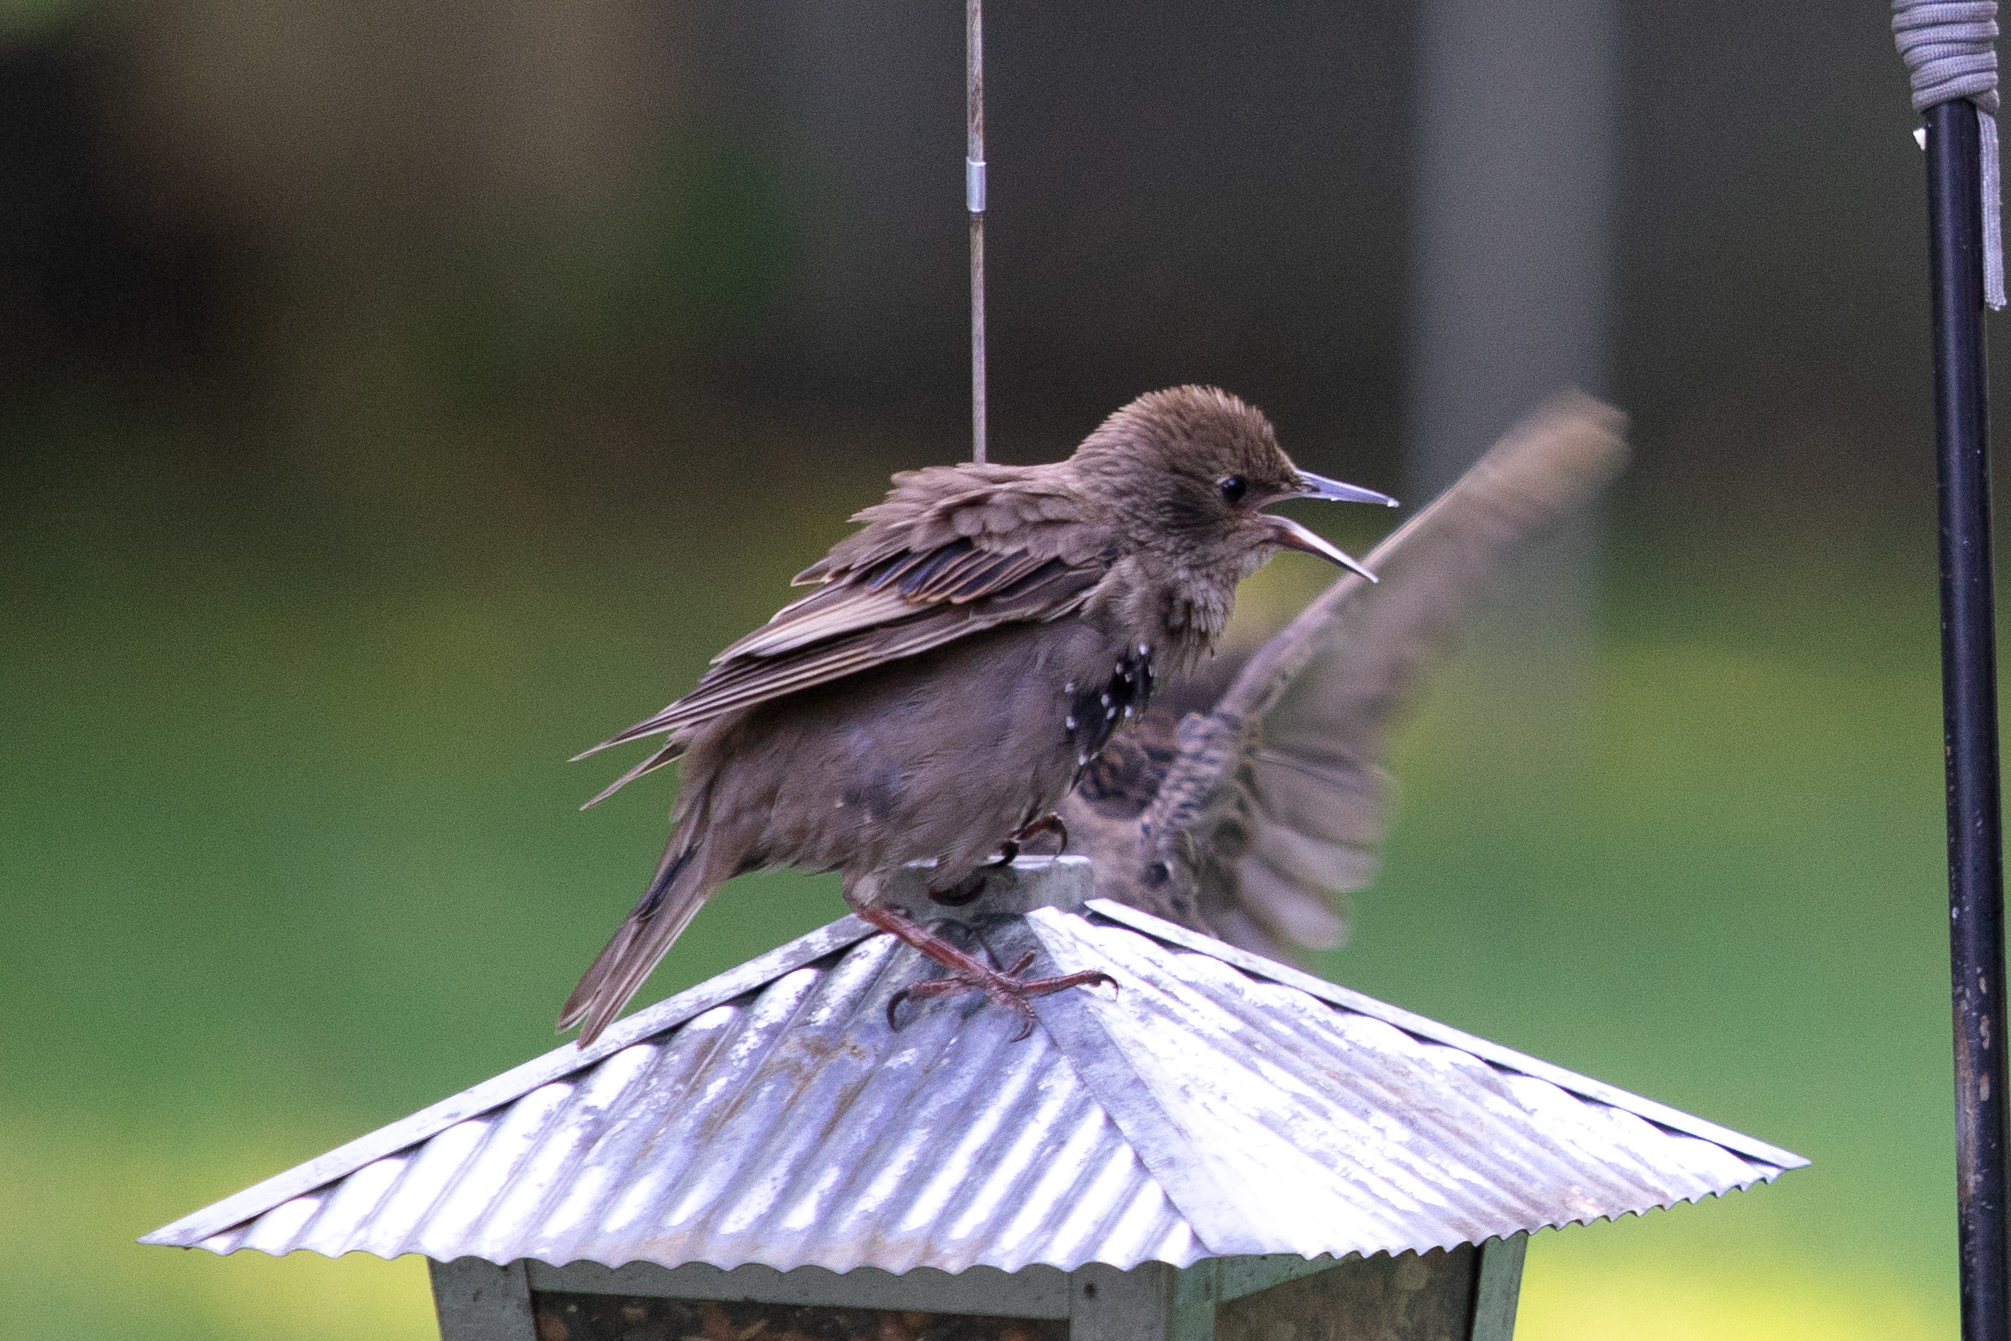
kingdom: Animalia
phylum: Chordata
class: Aves
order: Passeriformes
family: Sturnidae
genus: Sturnus
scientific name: Sturnus vulgaris
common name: Common starling
